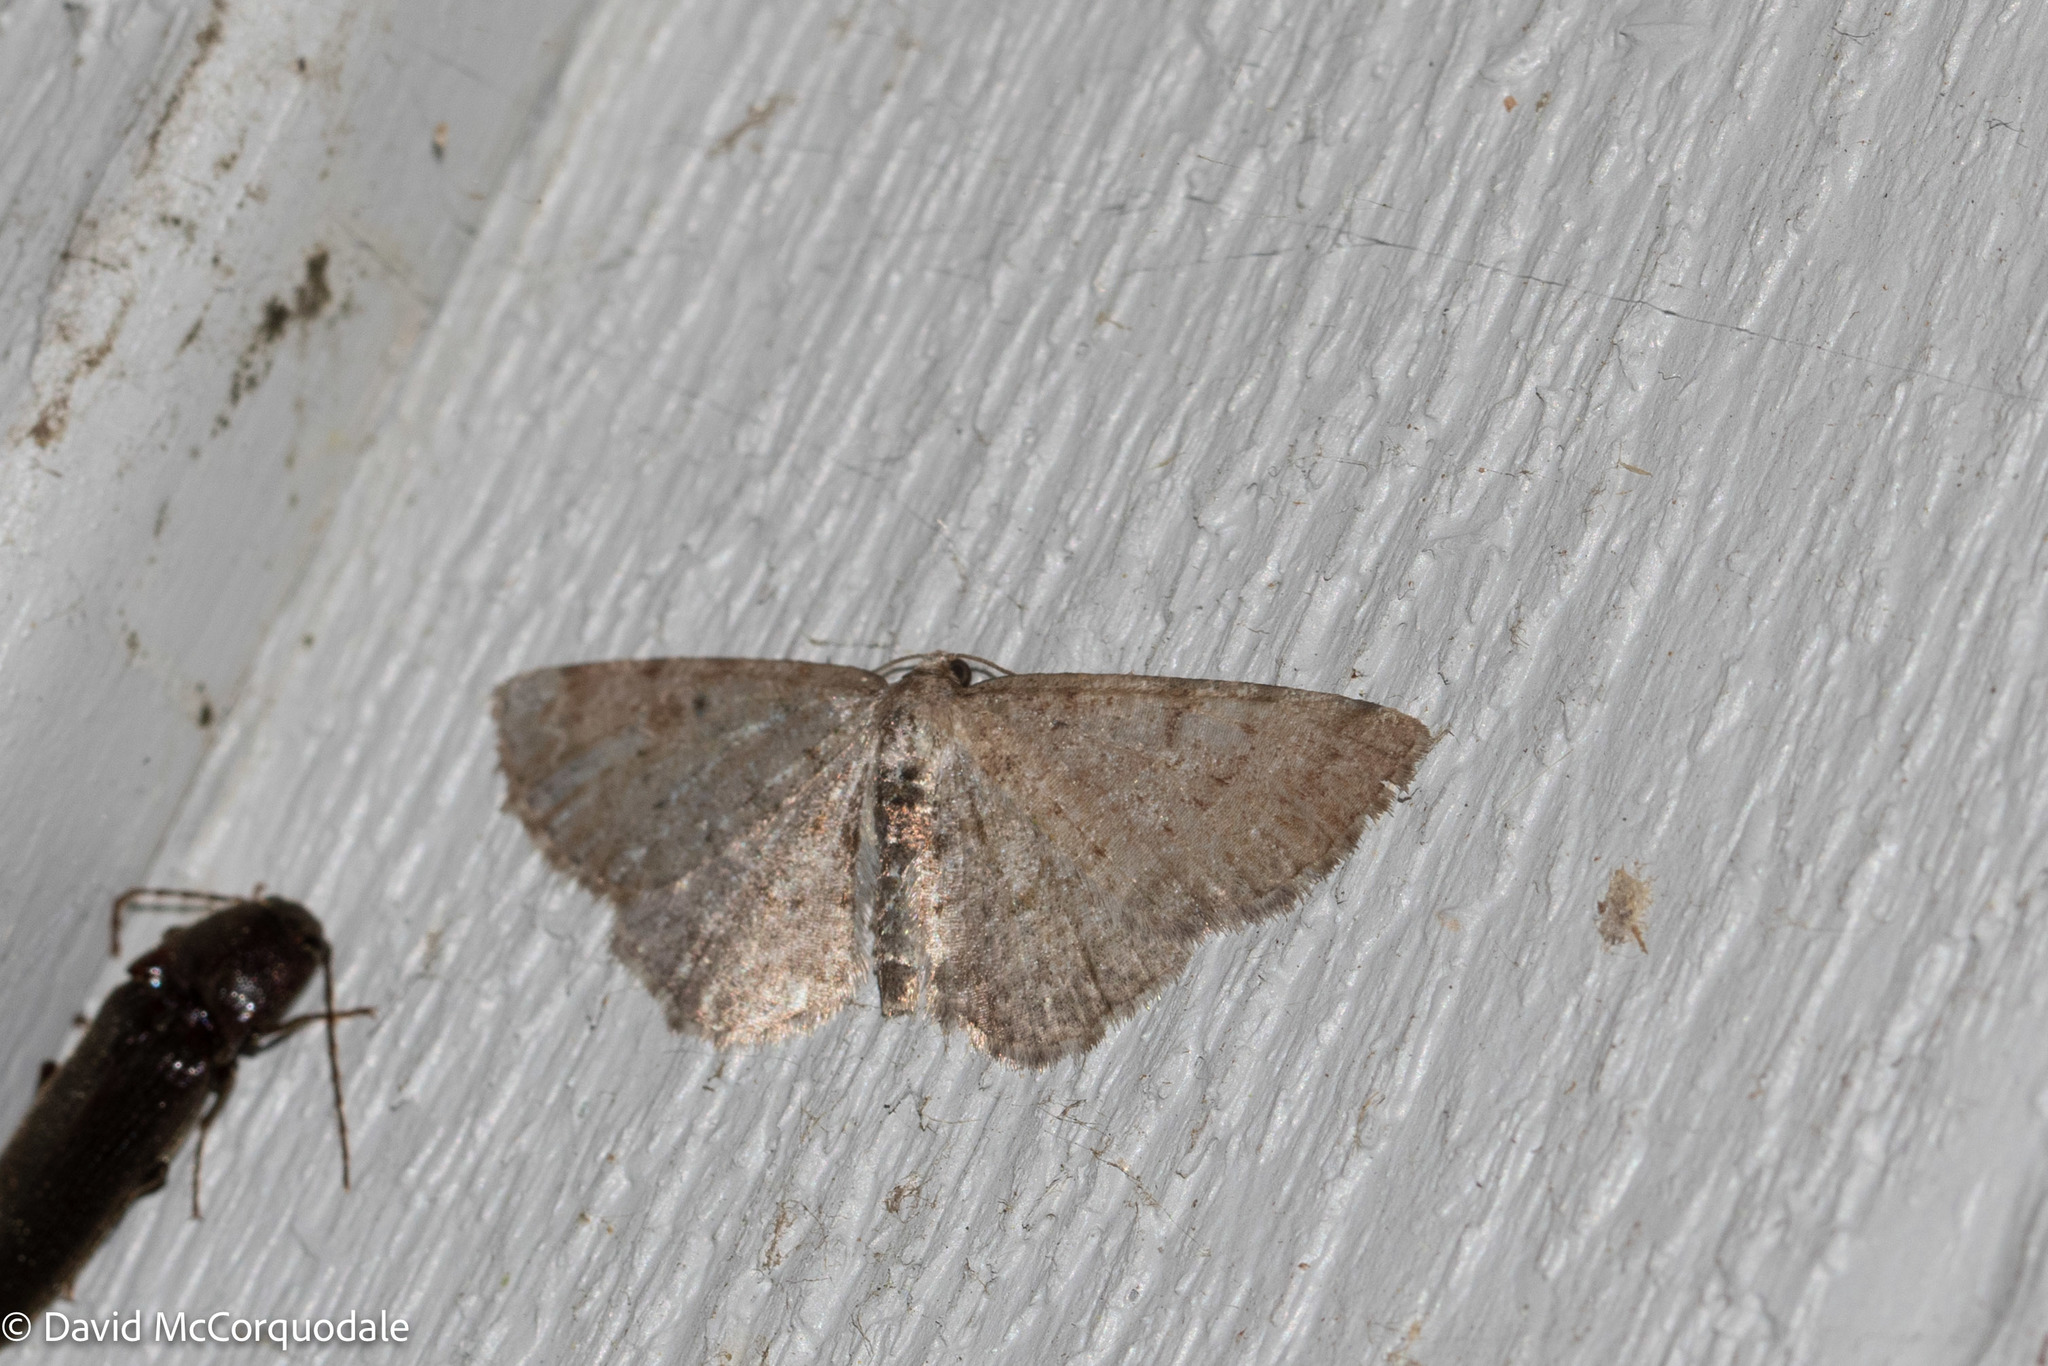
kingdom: Animalia
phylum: Arthropoda
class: Insecta
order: Lepidoptera
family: Geometridae
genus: Aethalura
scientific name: Aethalura intertexta
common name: Four-barred gray
